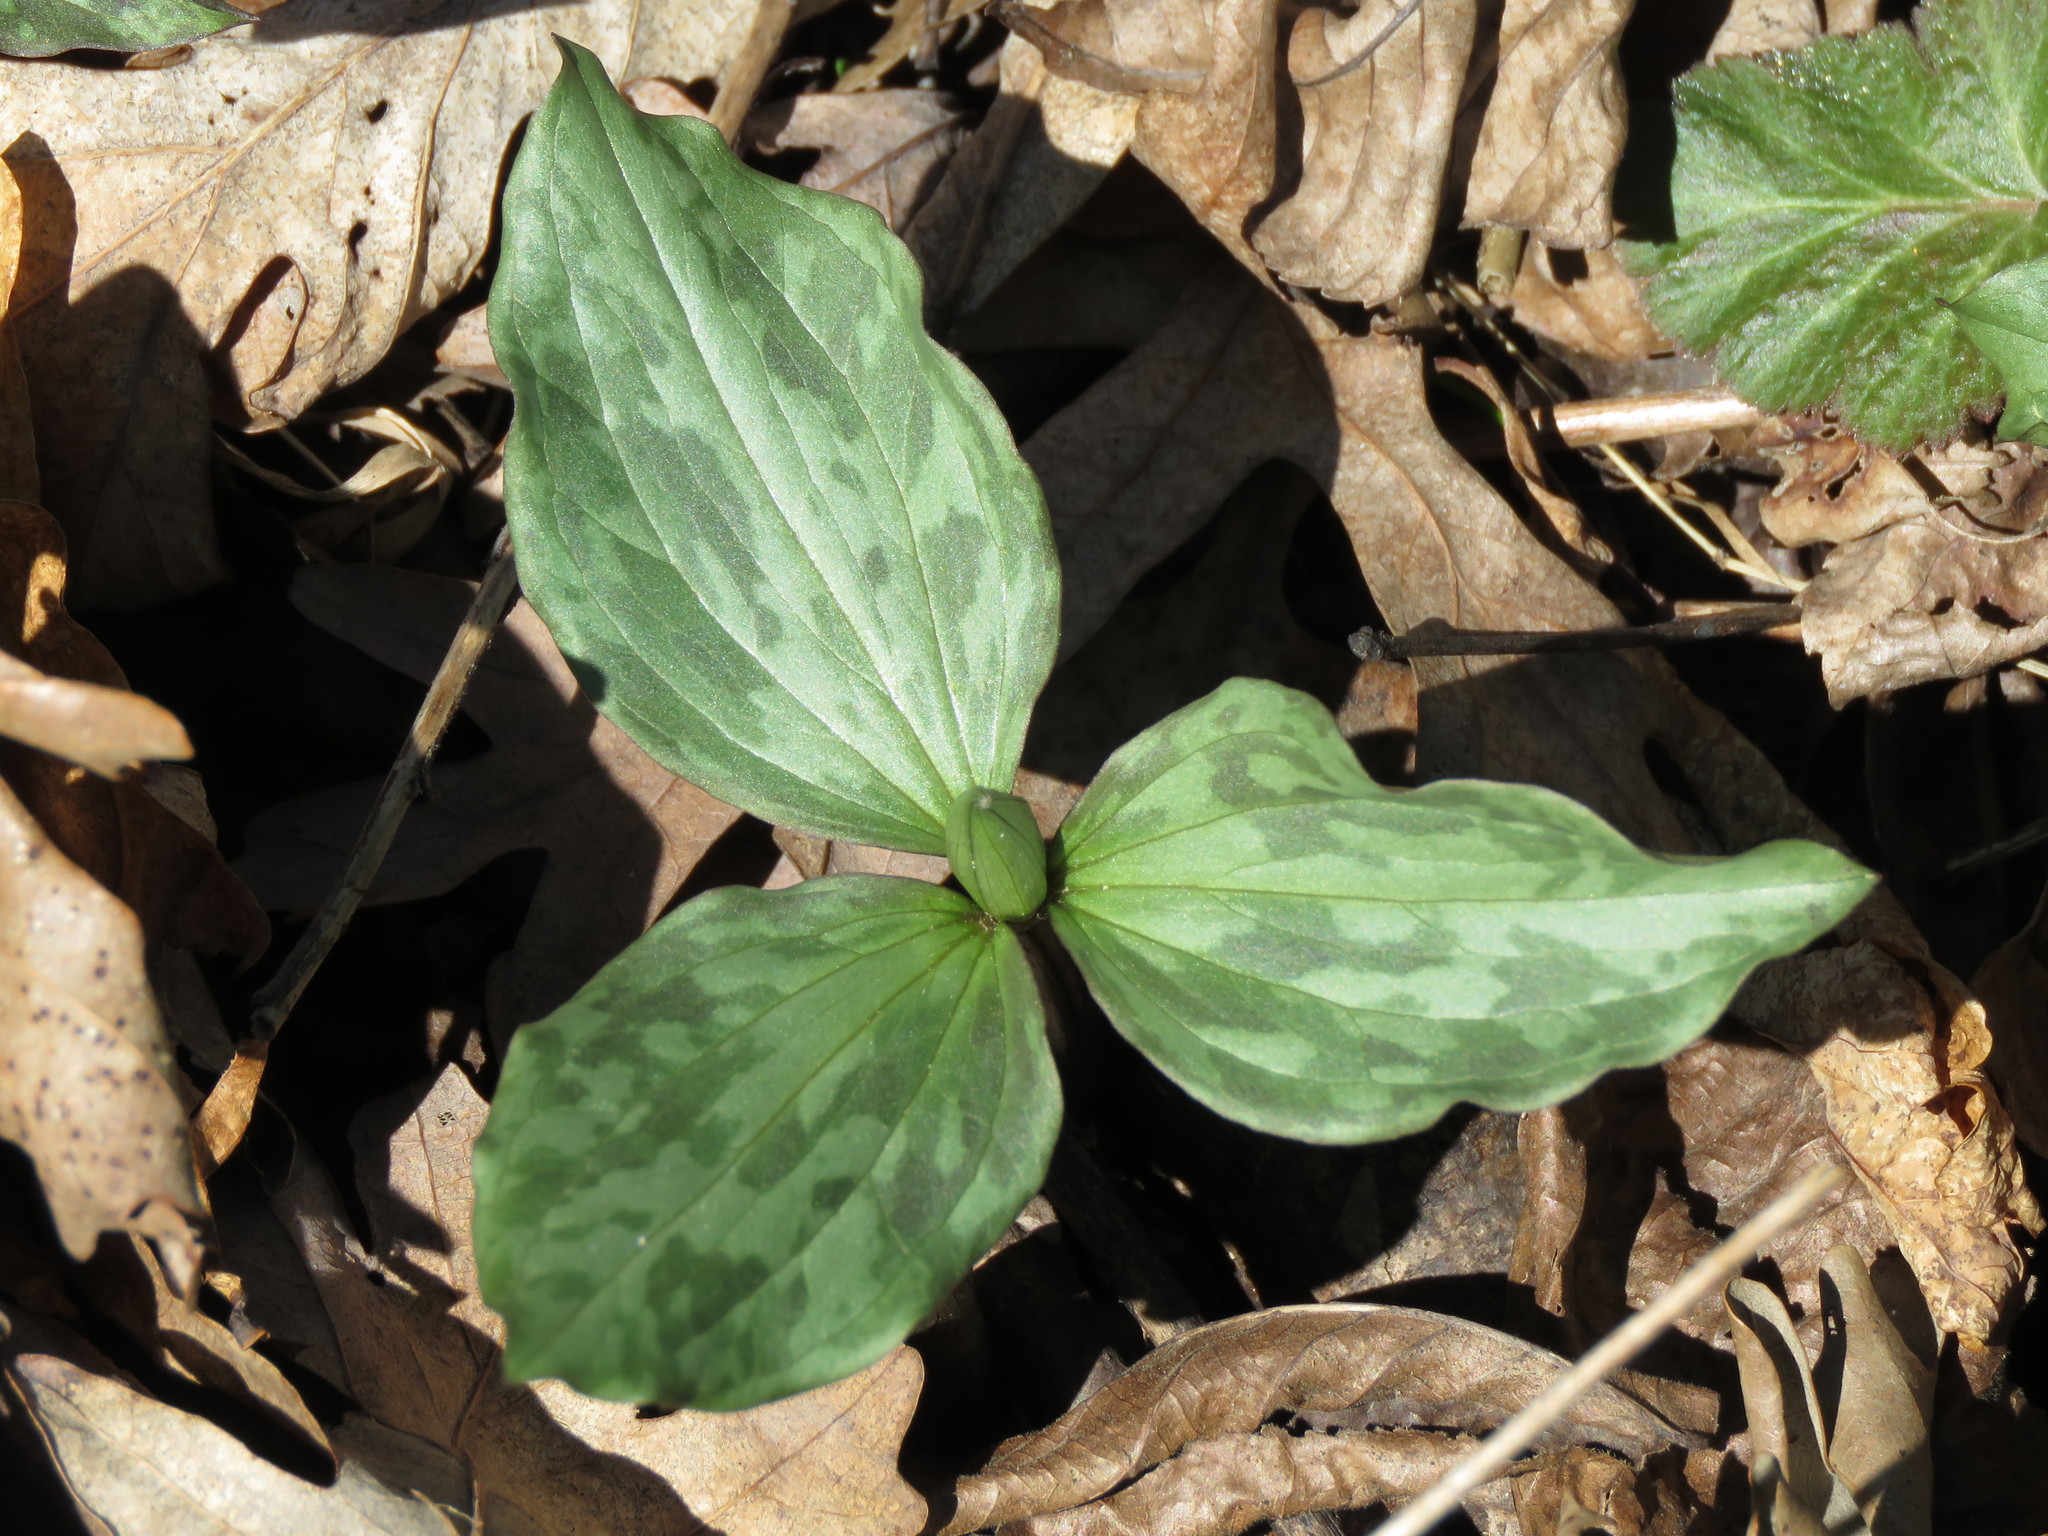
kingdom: Plantae
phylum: Tracheophyta
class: Liliopsida
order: Liliales
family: Melanthiaceae
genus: Trillium
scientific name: Trillium recurvatum
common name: Bloody butcher
